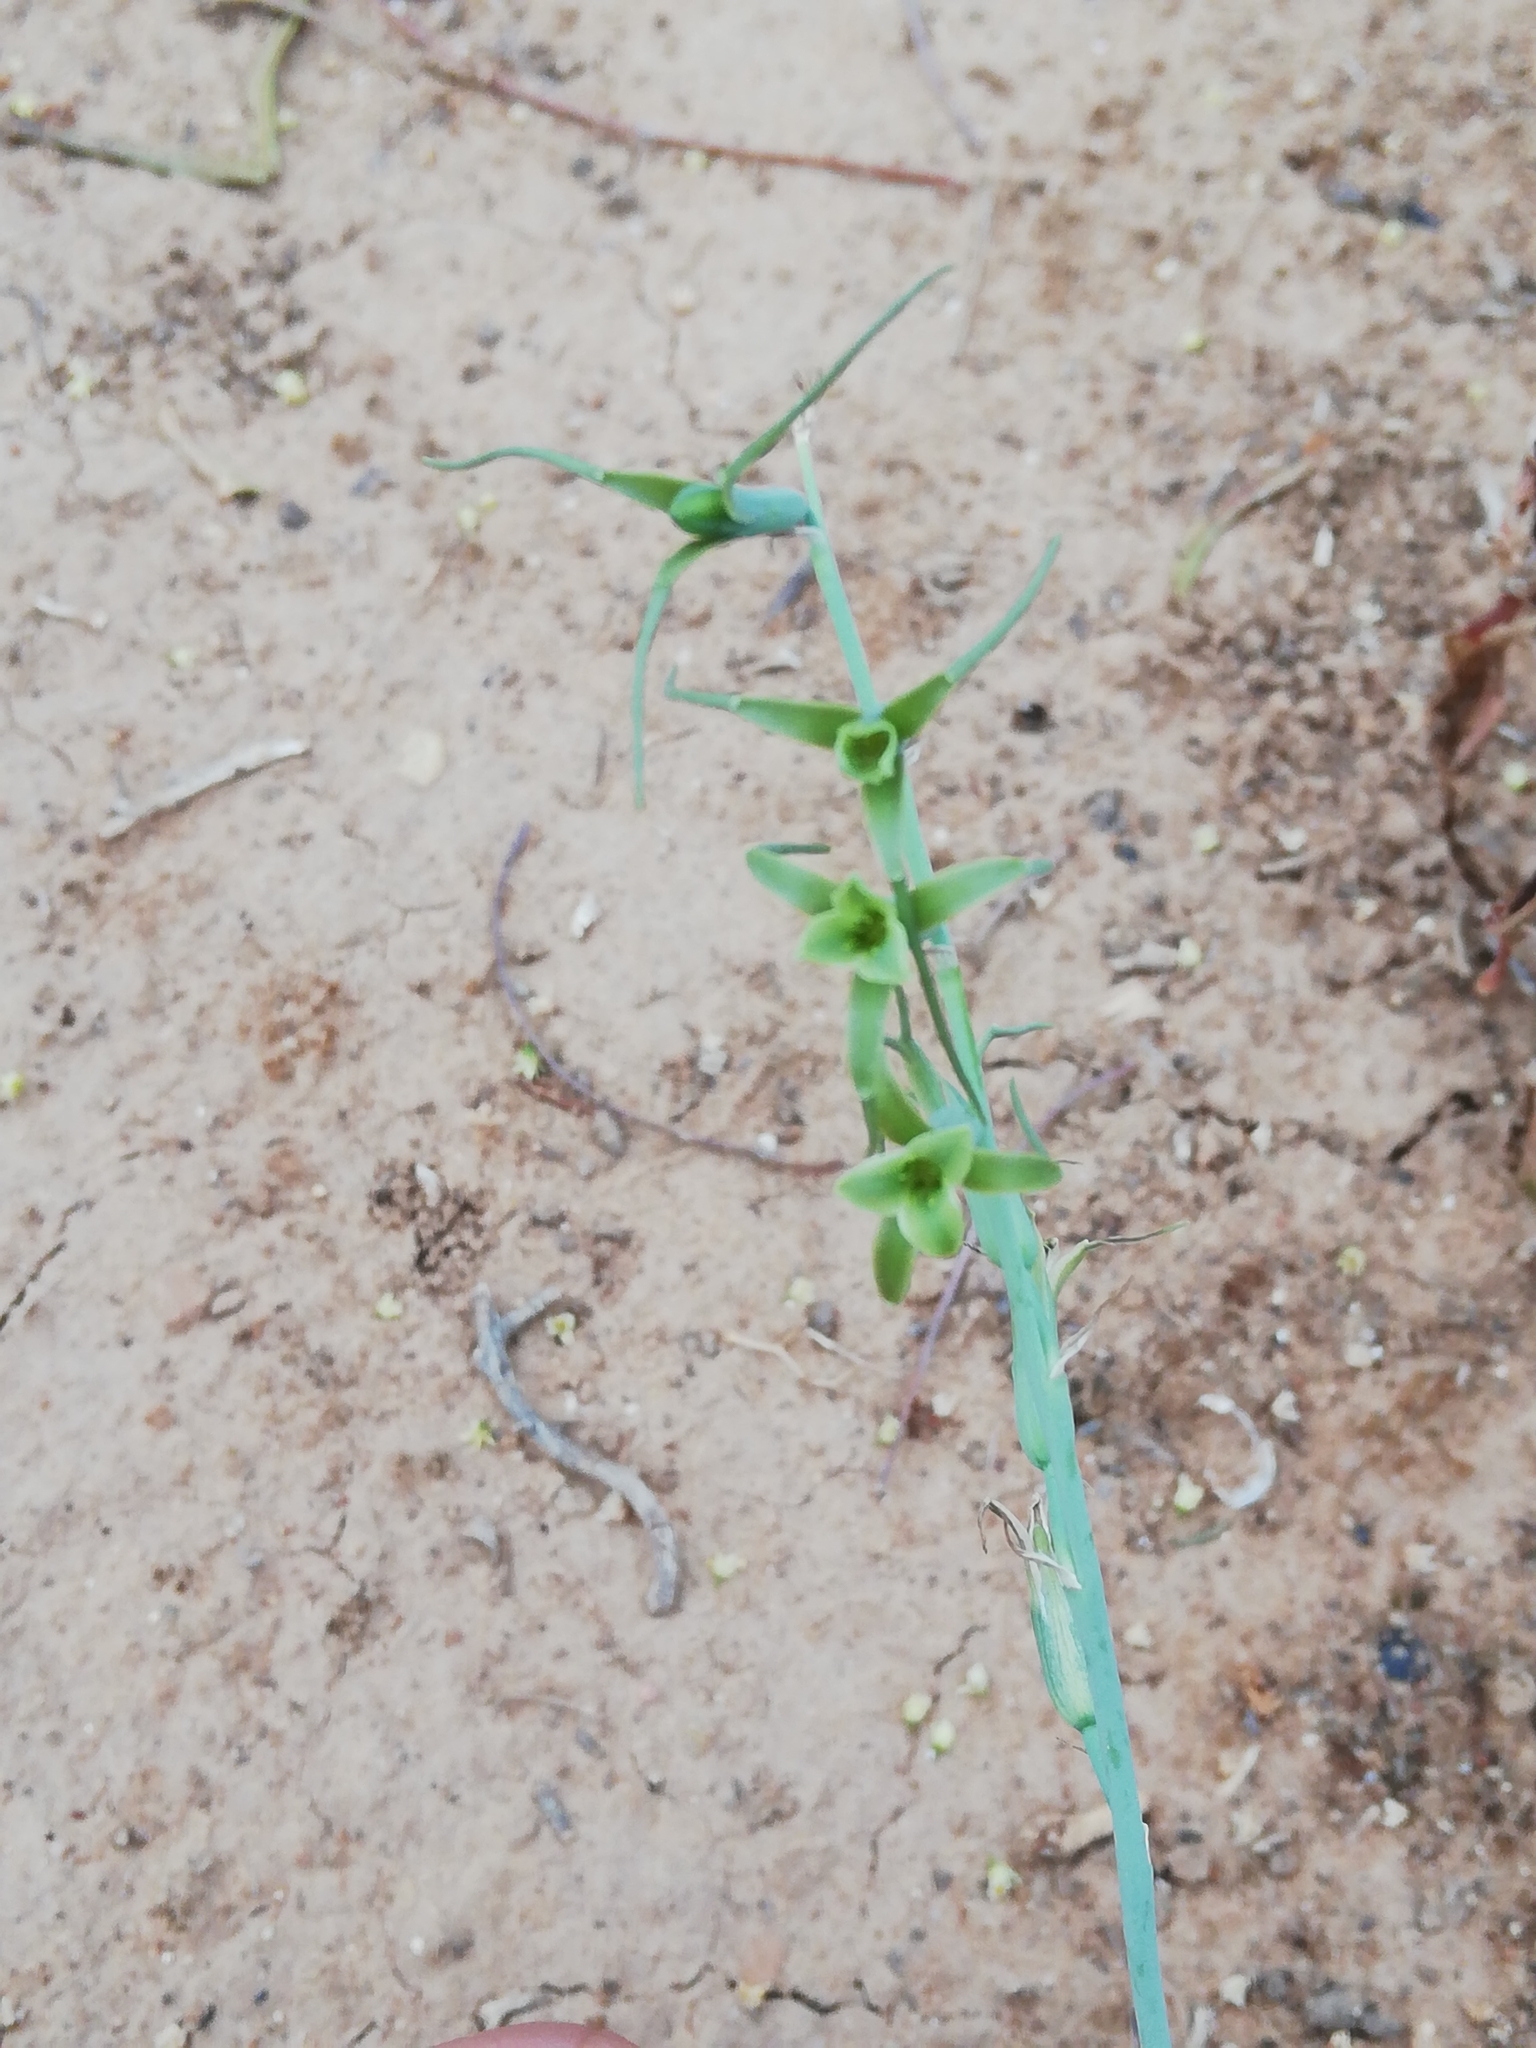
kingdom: Plantae
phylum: Tracheophyta
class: Liliopsida
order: Asparagales
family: Asparagaceae
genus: Dipcadi
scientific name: Dipcadi viride
